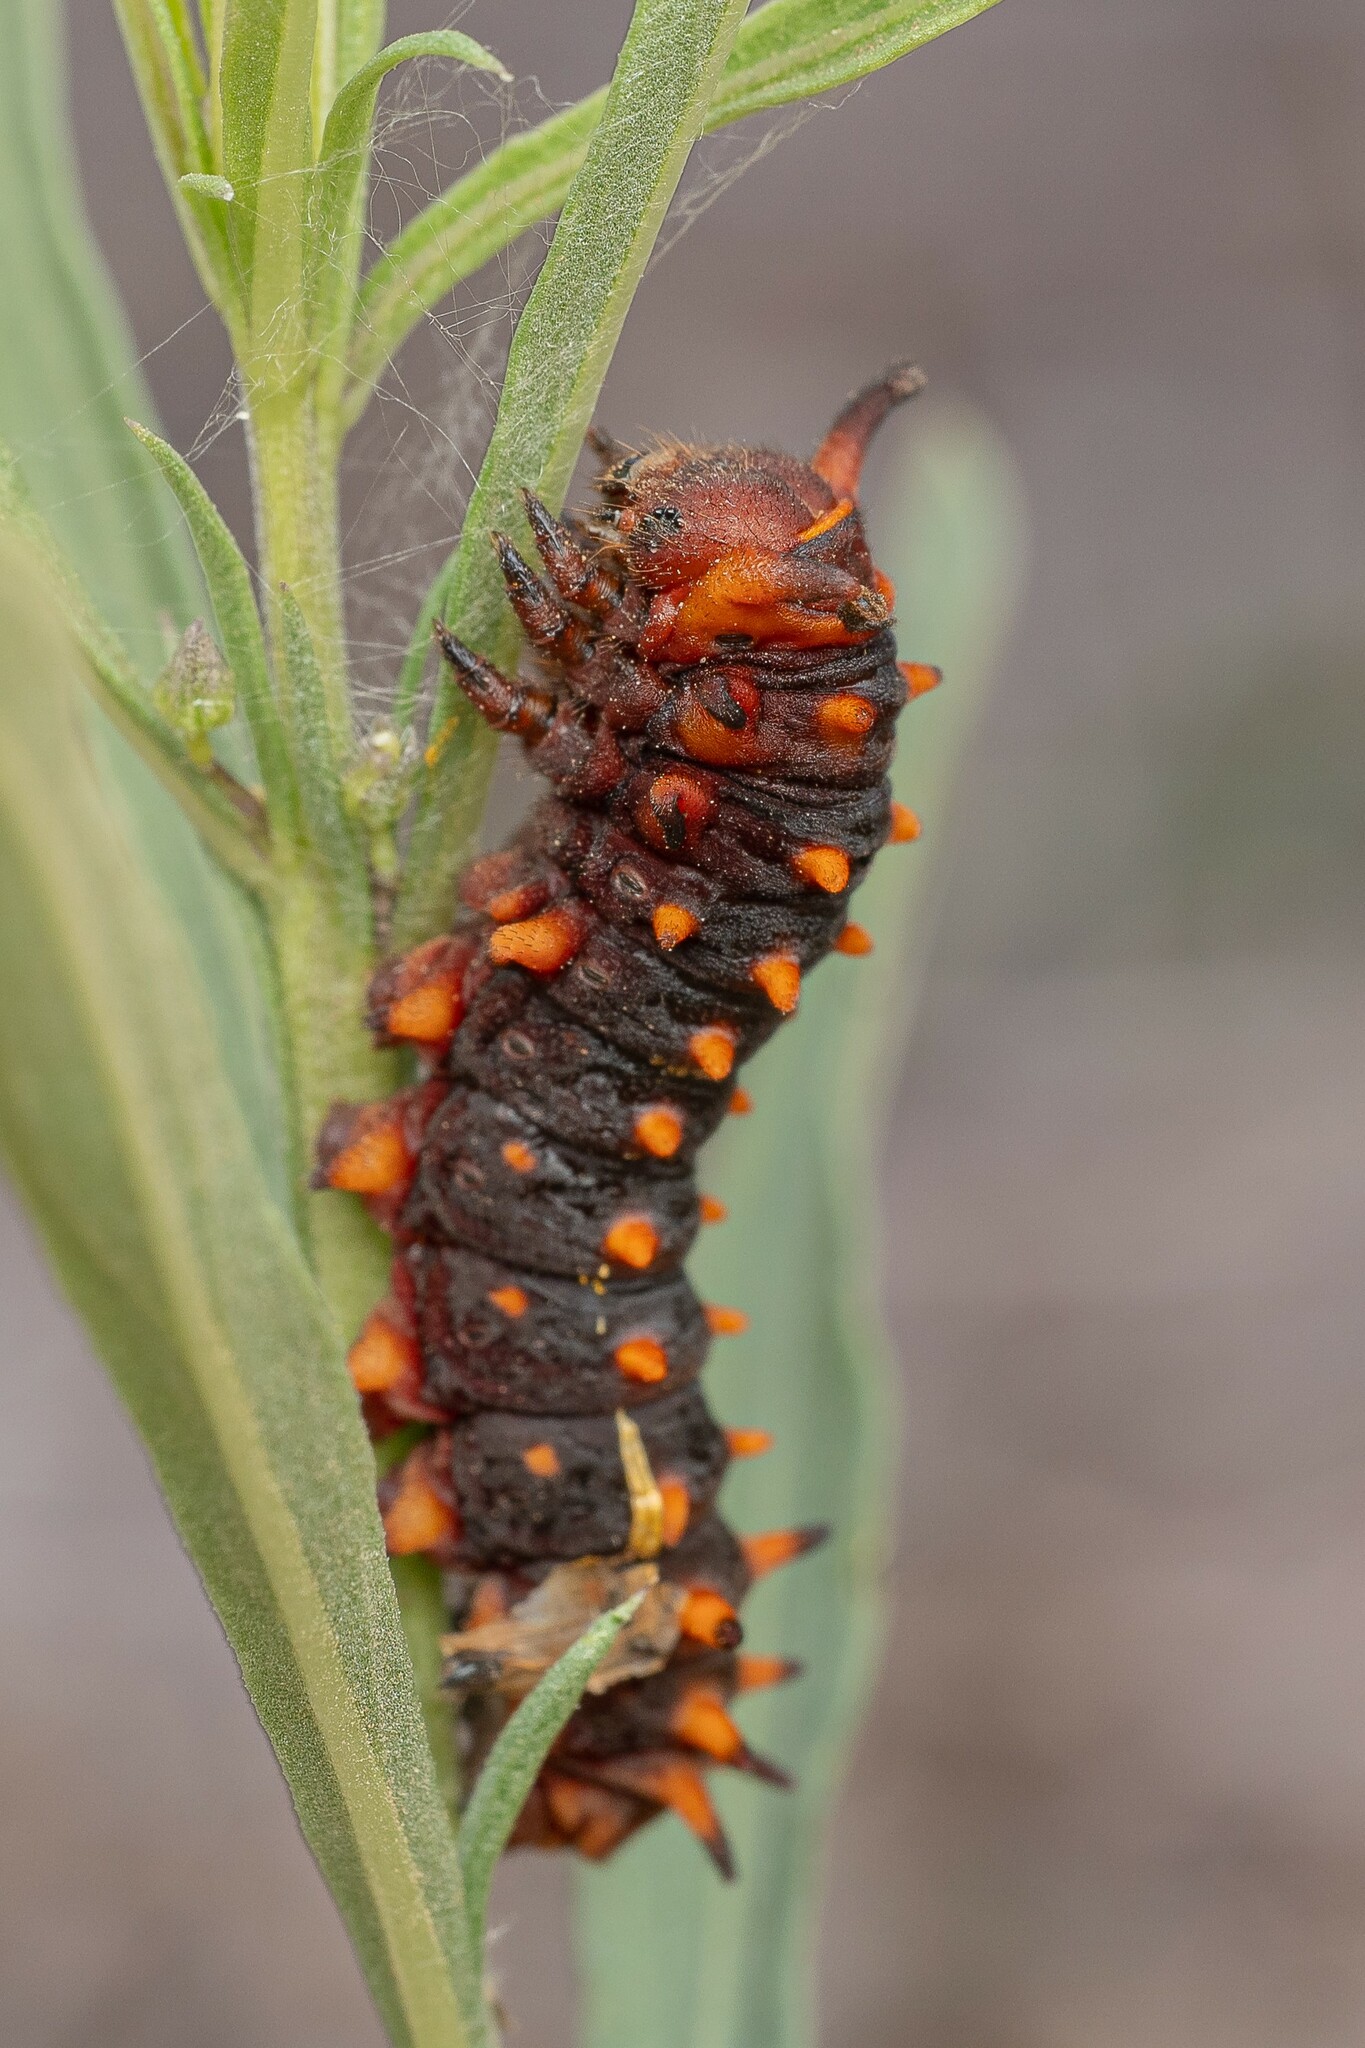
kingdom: Animalia
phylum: Arthropoda
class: Insecta
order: Lepidoptera
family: Papilionidae
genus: Battus
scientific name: Battus philenor
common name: Pipevine swallowtail
